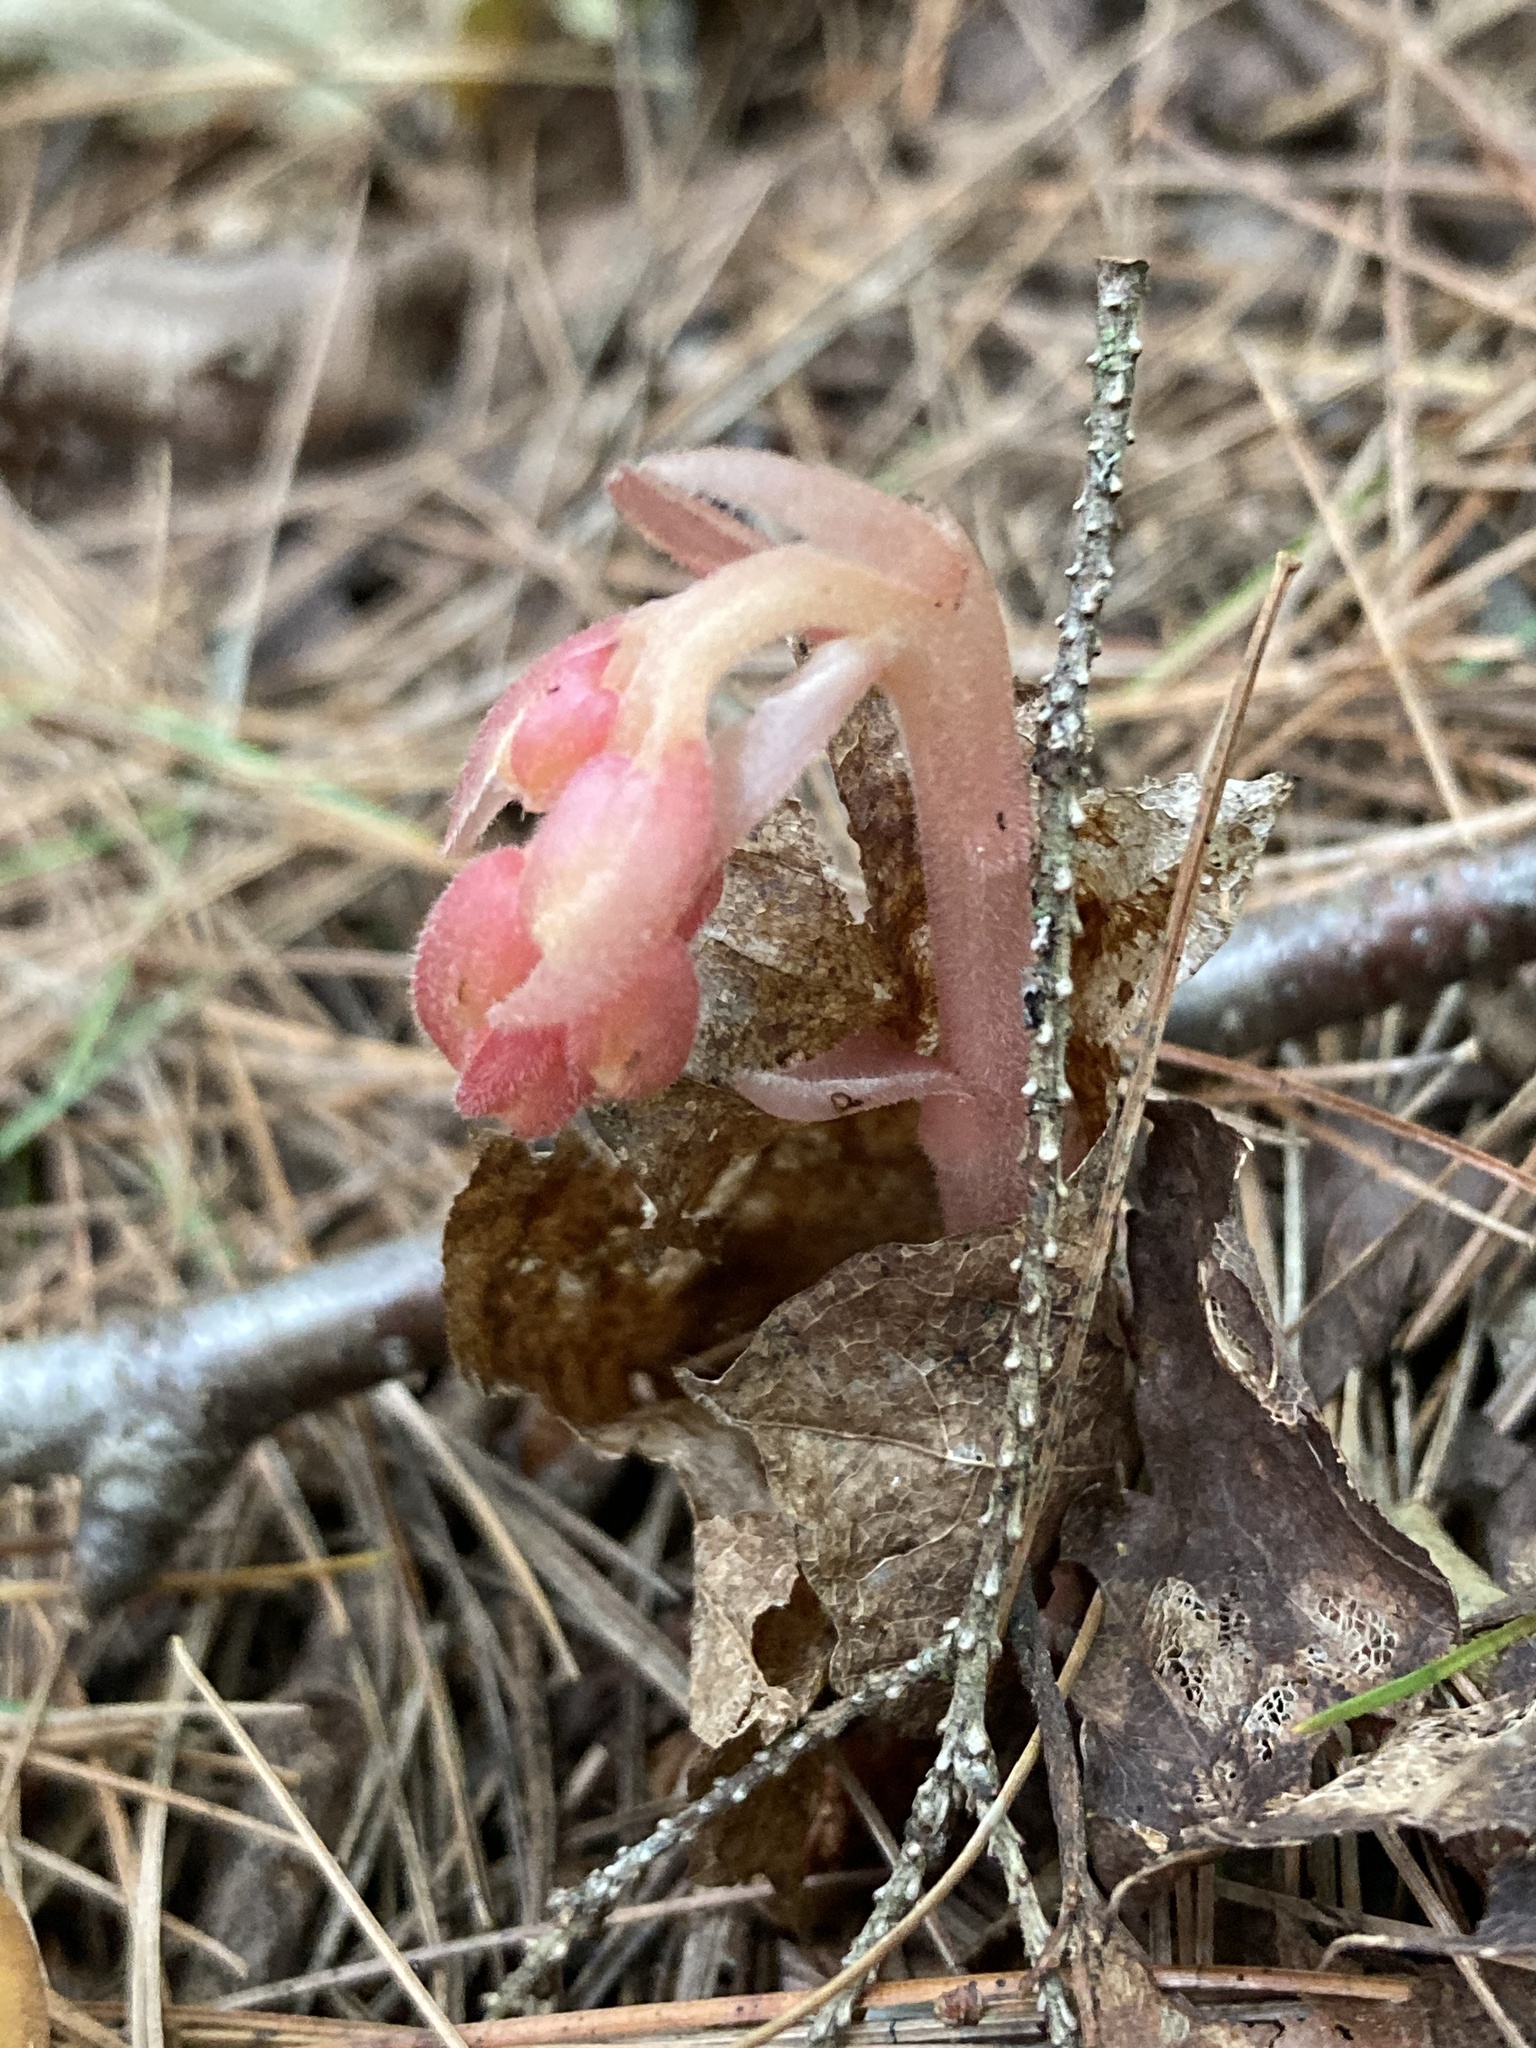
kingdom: Plantae
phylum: Tracheophyta
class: Magnoliopsida
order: Ericales
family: Ericaceae
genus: Hypopitys
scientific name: Hypopitys monotropa
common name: Yellow bird's-nest
